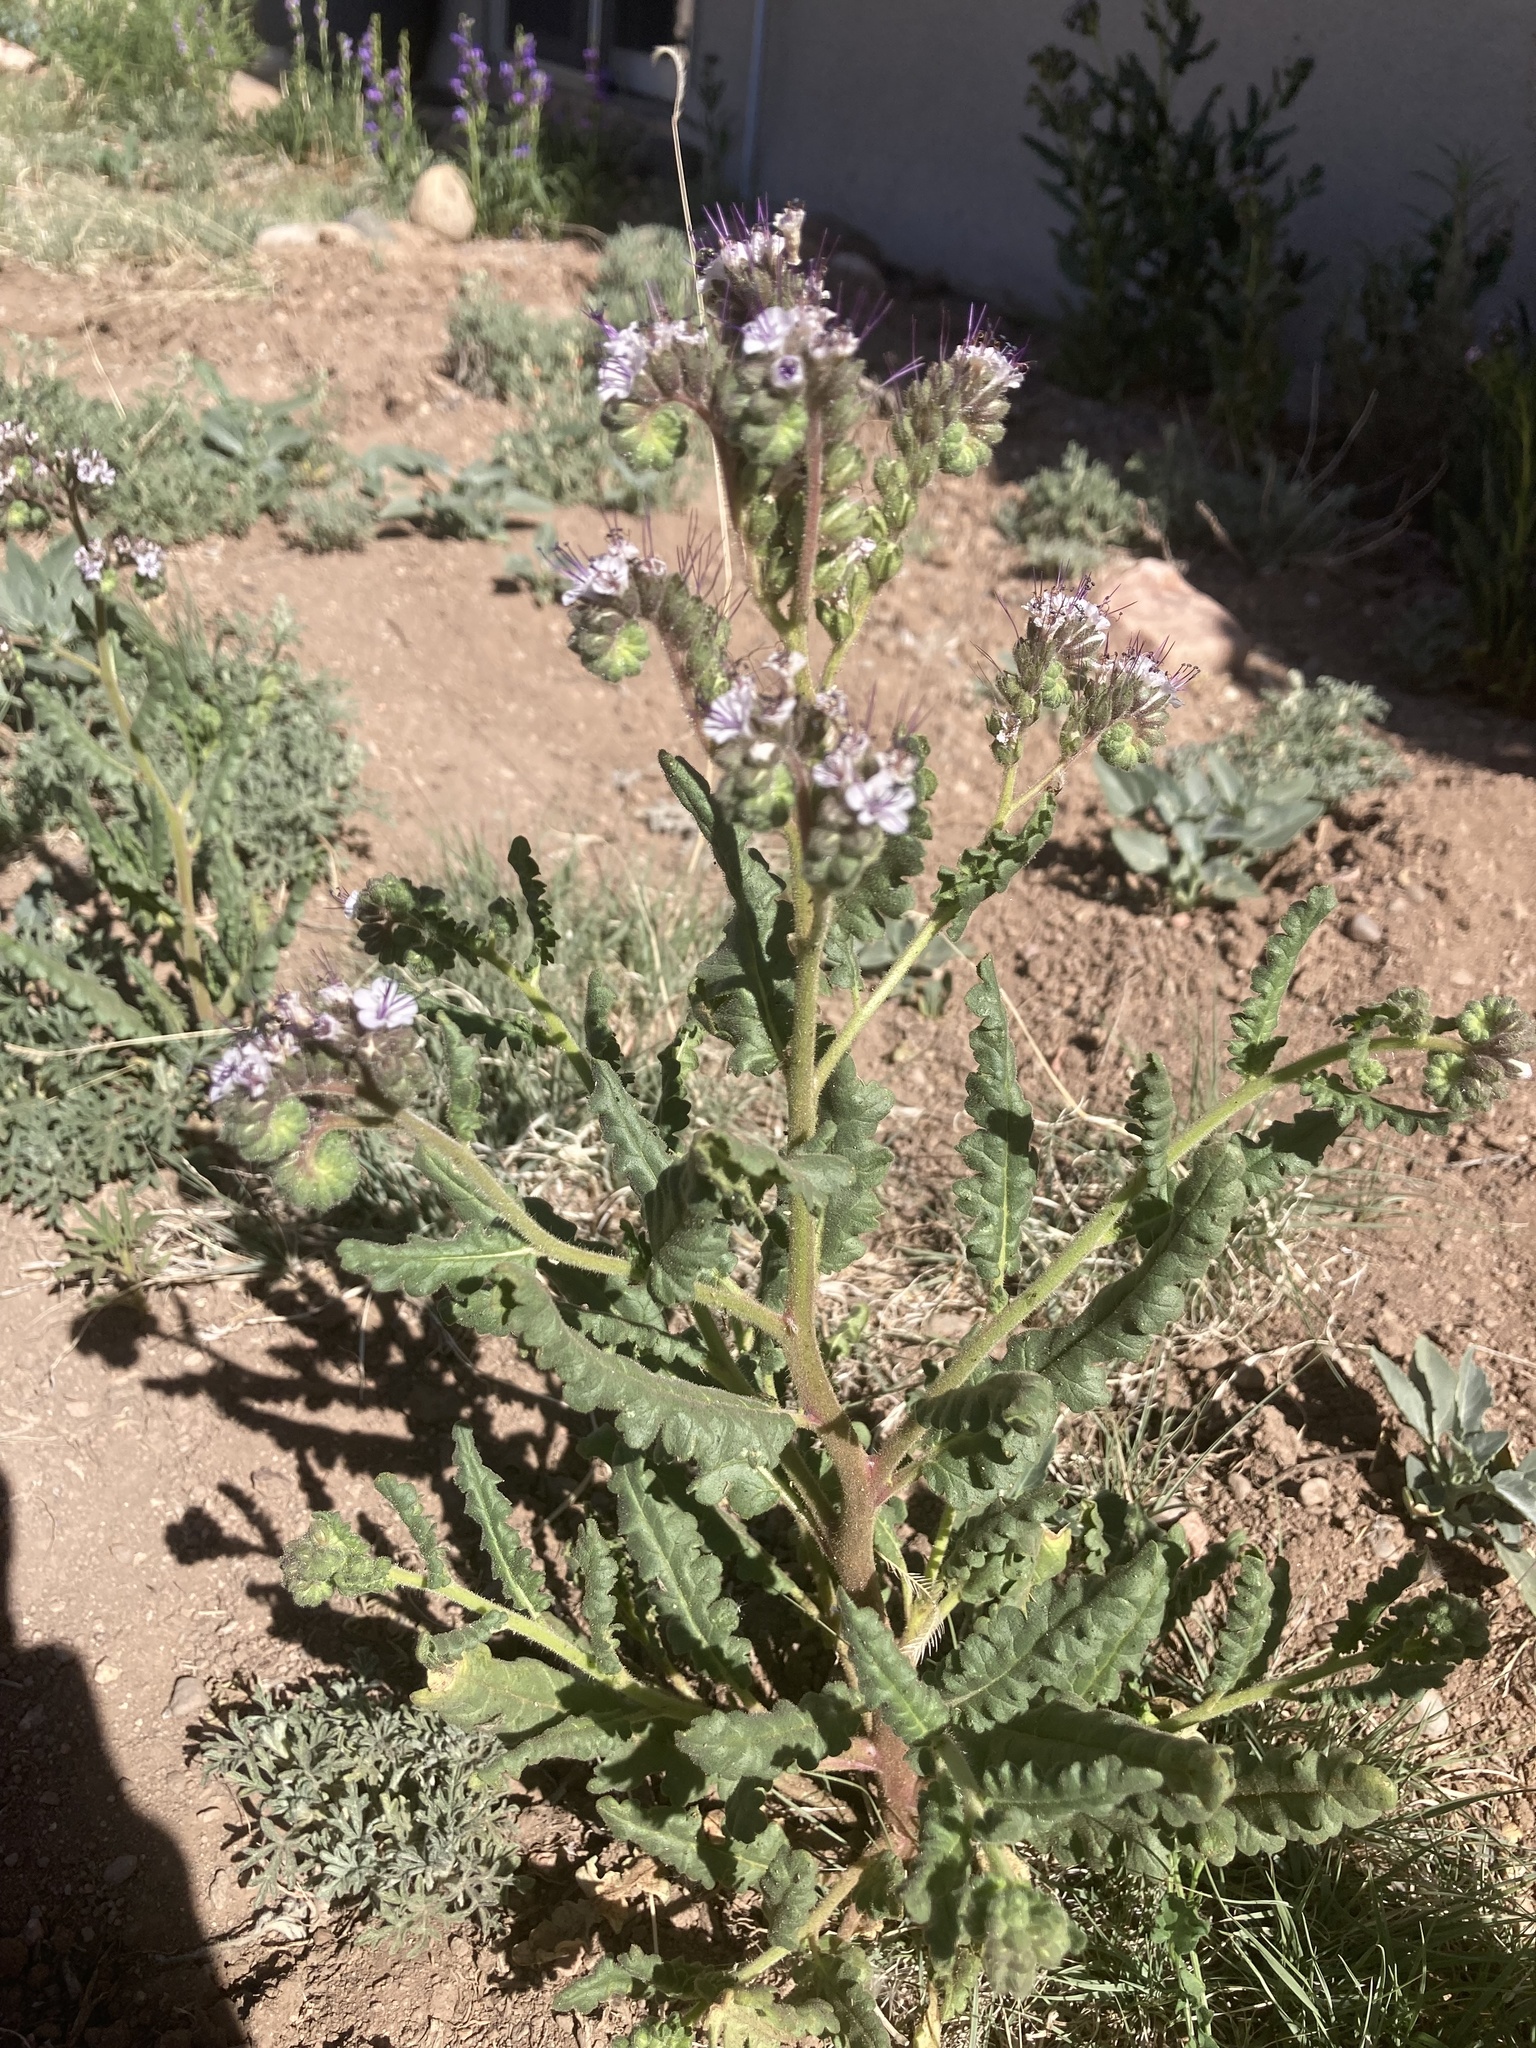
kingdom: Plantae
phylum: Tracheophyta
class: Magnoliopsida
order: Boraginales
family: Hydrophyllaceae
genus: Phacelia
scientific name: Phacelia integrifolia
